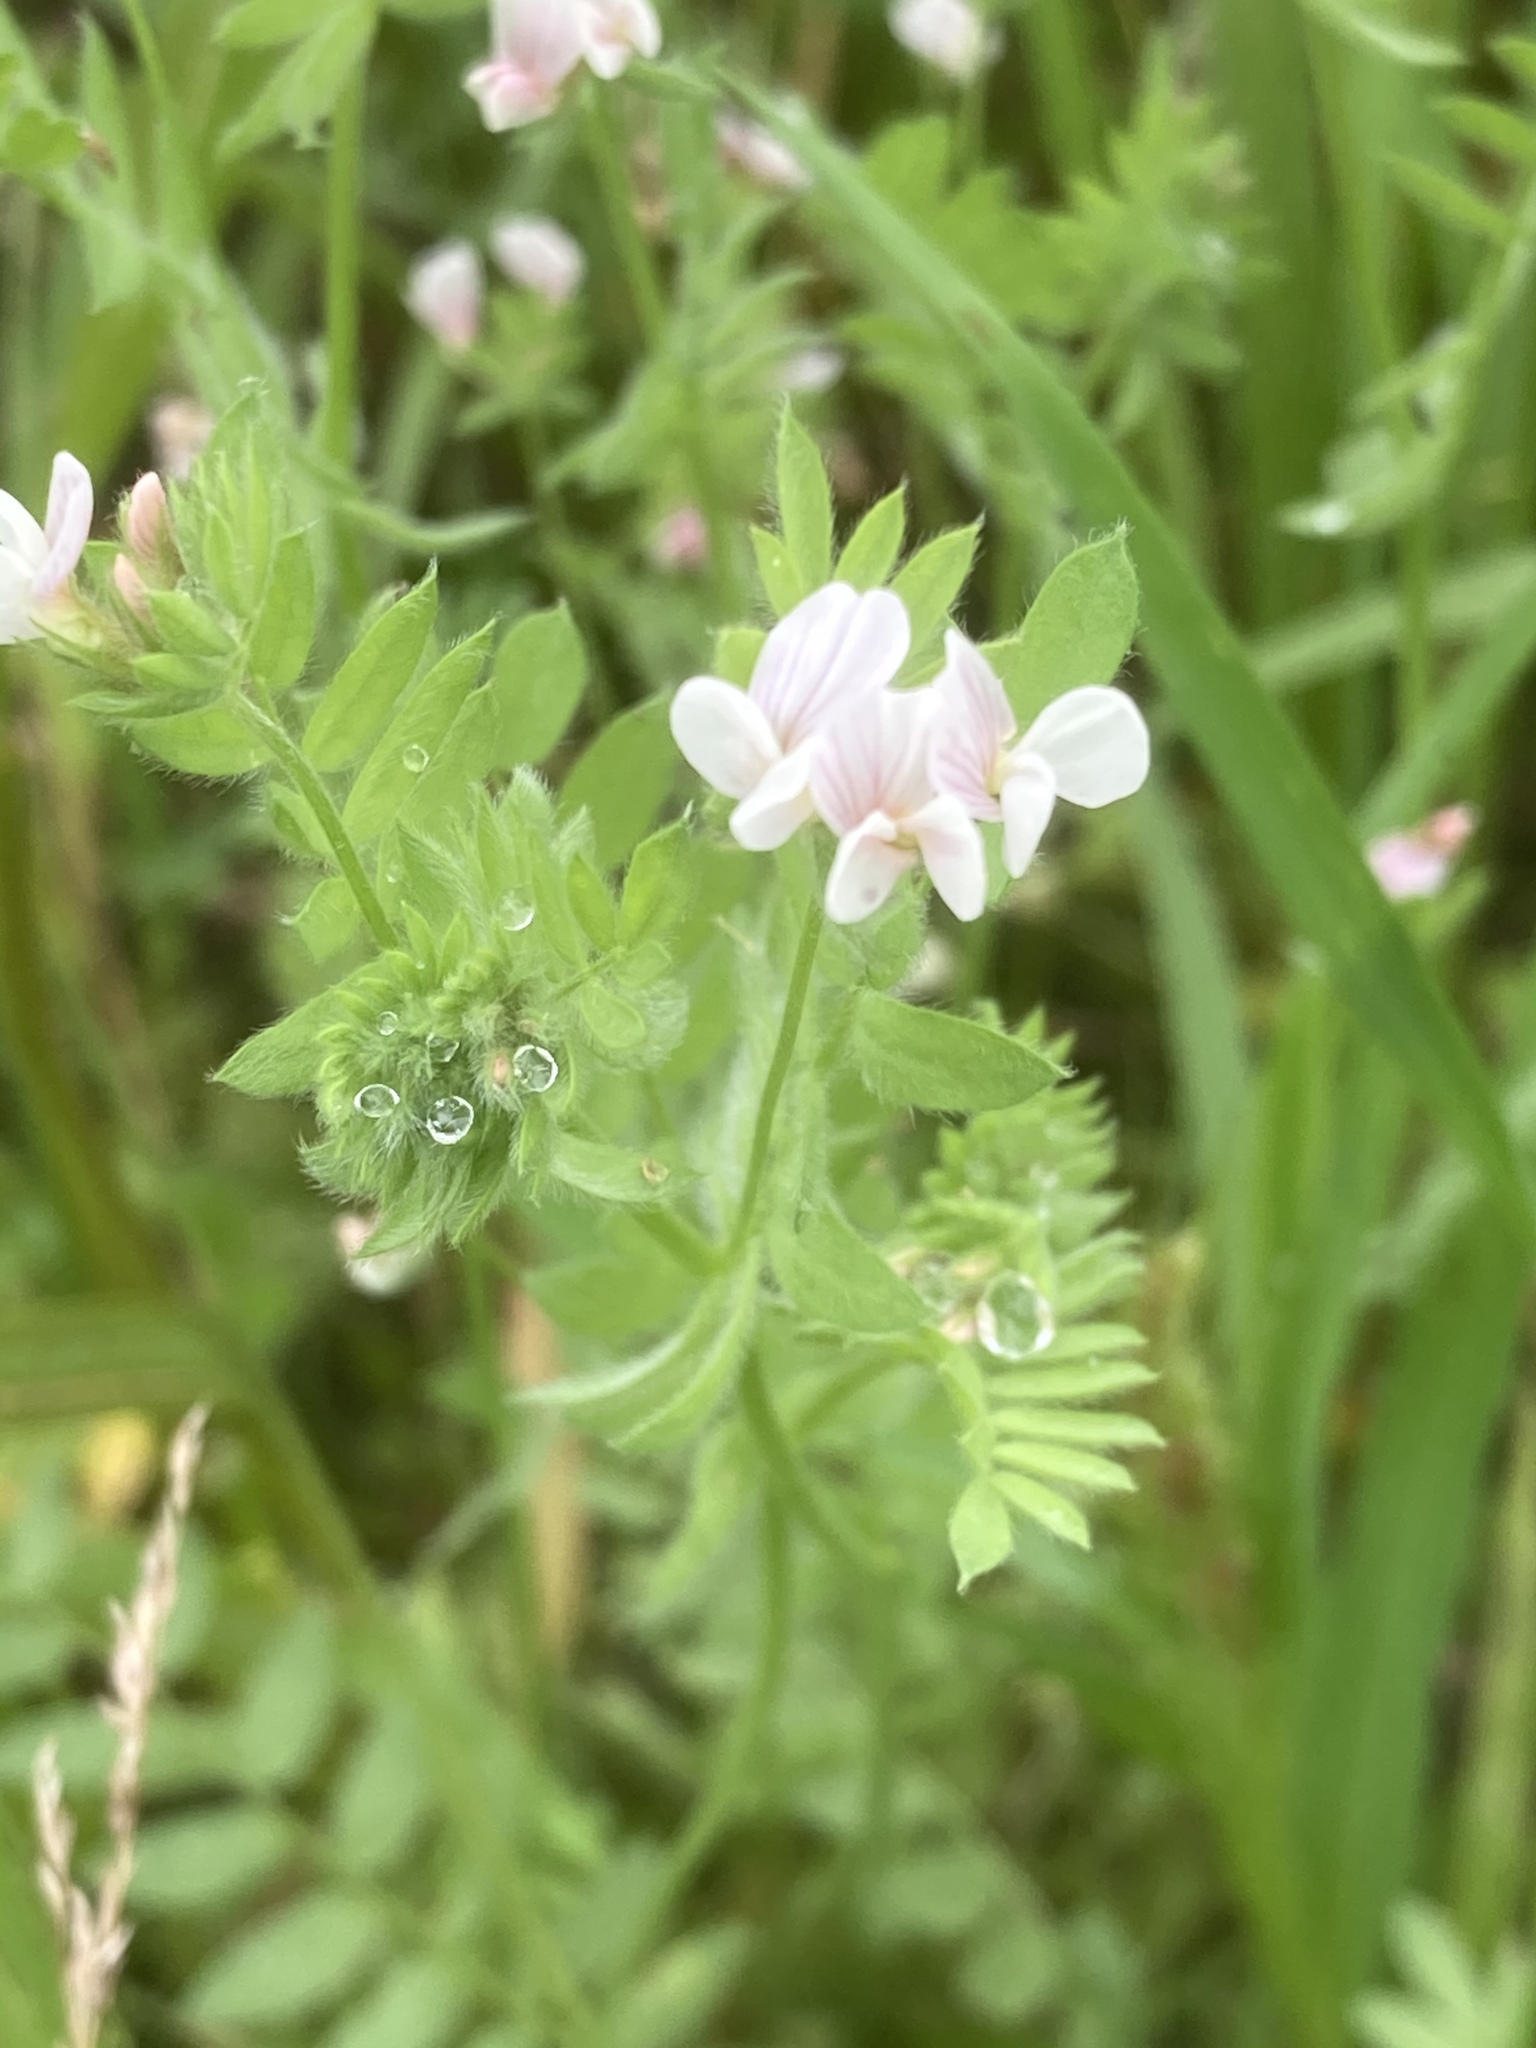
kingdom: Plantae
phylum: Tracheophyta
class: Magnoliopsida
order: Fabales
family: Fabaceae
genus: Ornithopus
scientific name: Ornithopus sativus
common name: Serradella
